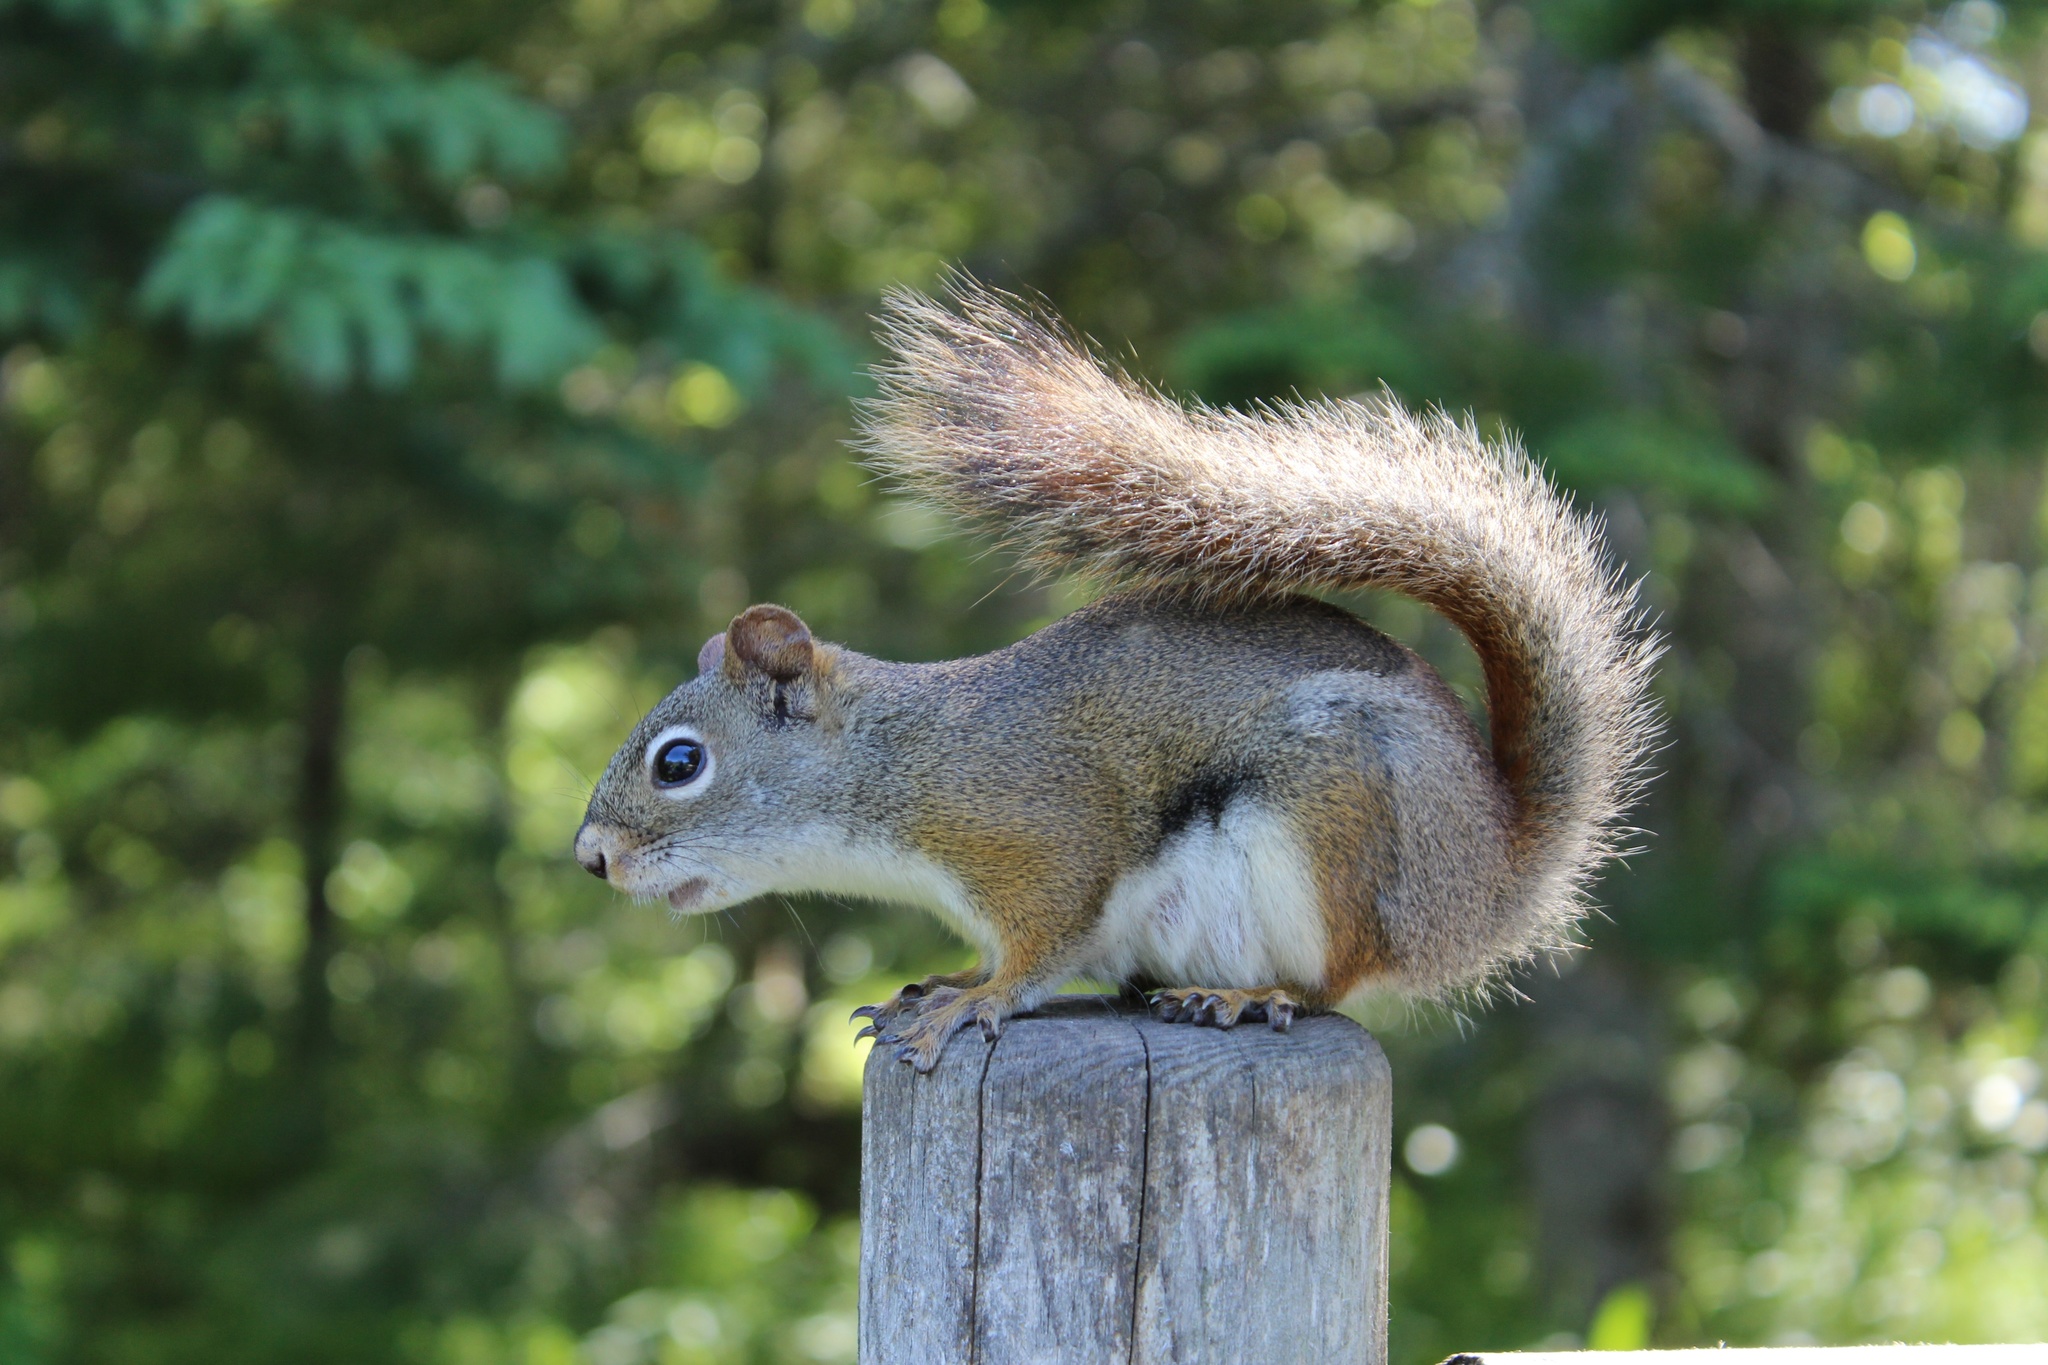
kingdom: Animalia
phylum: Chordata
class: Mammalia
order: Rodentia
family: Sciuridae
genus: Tamiasciurus
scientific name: Tamiasciurus hudsonicus
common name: Red squirrel
